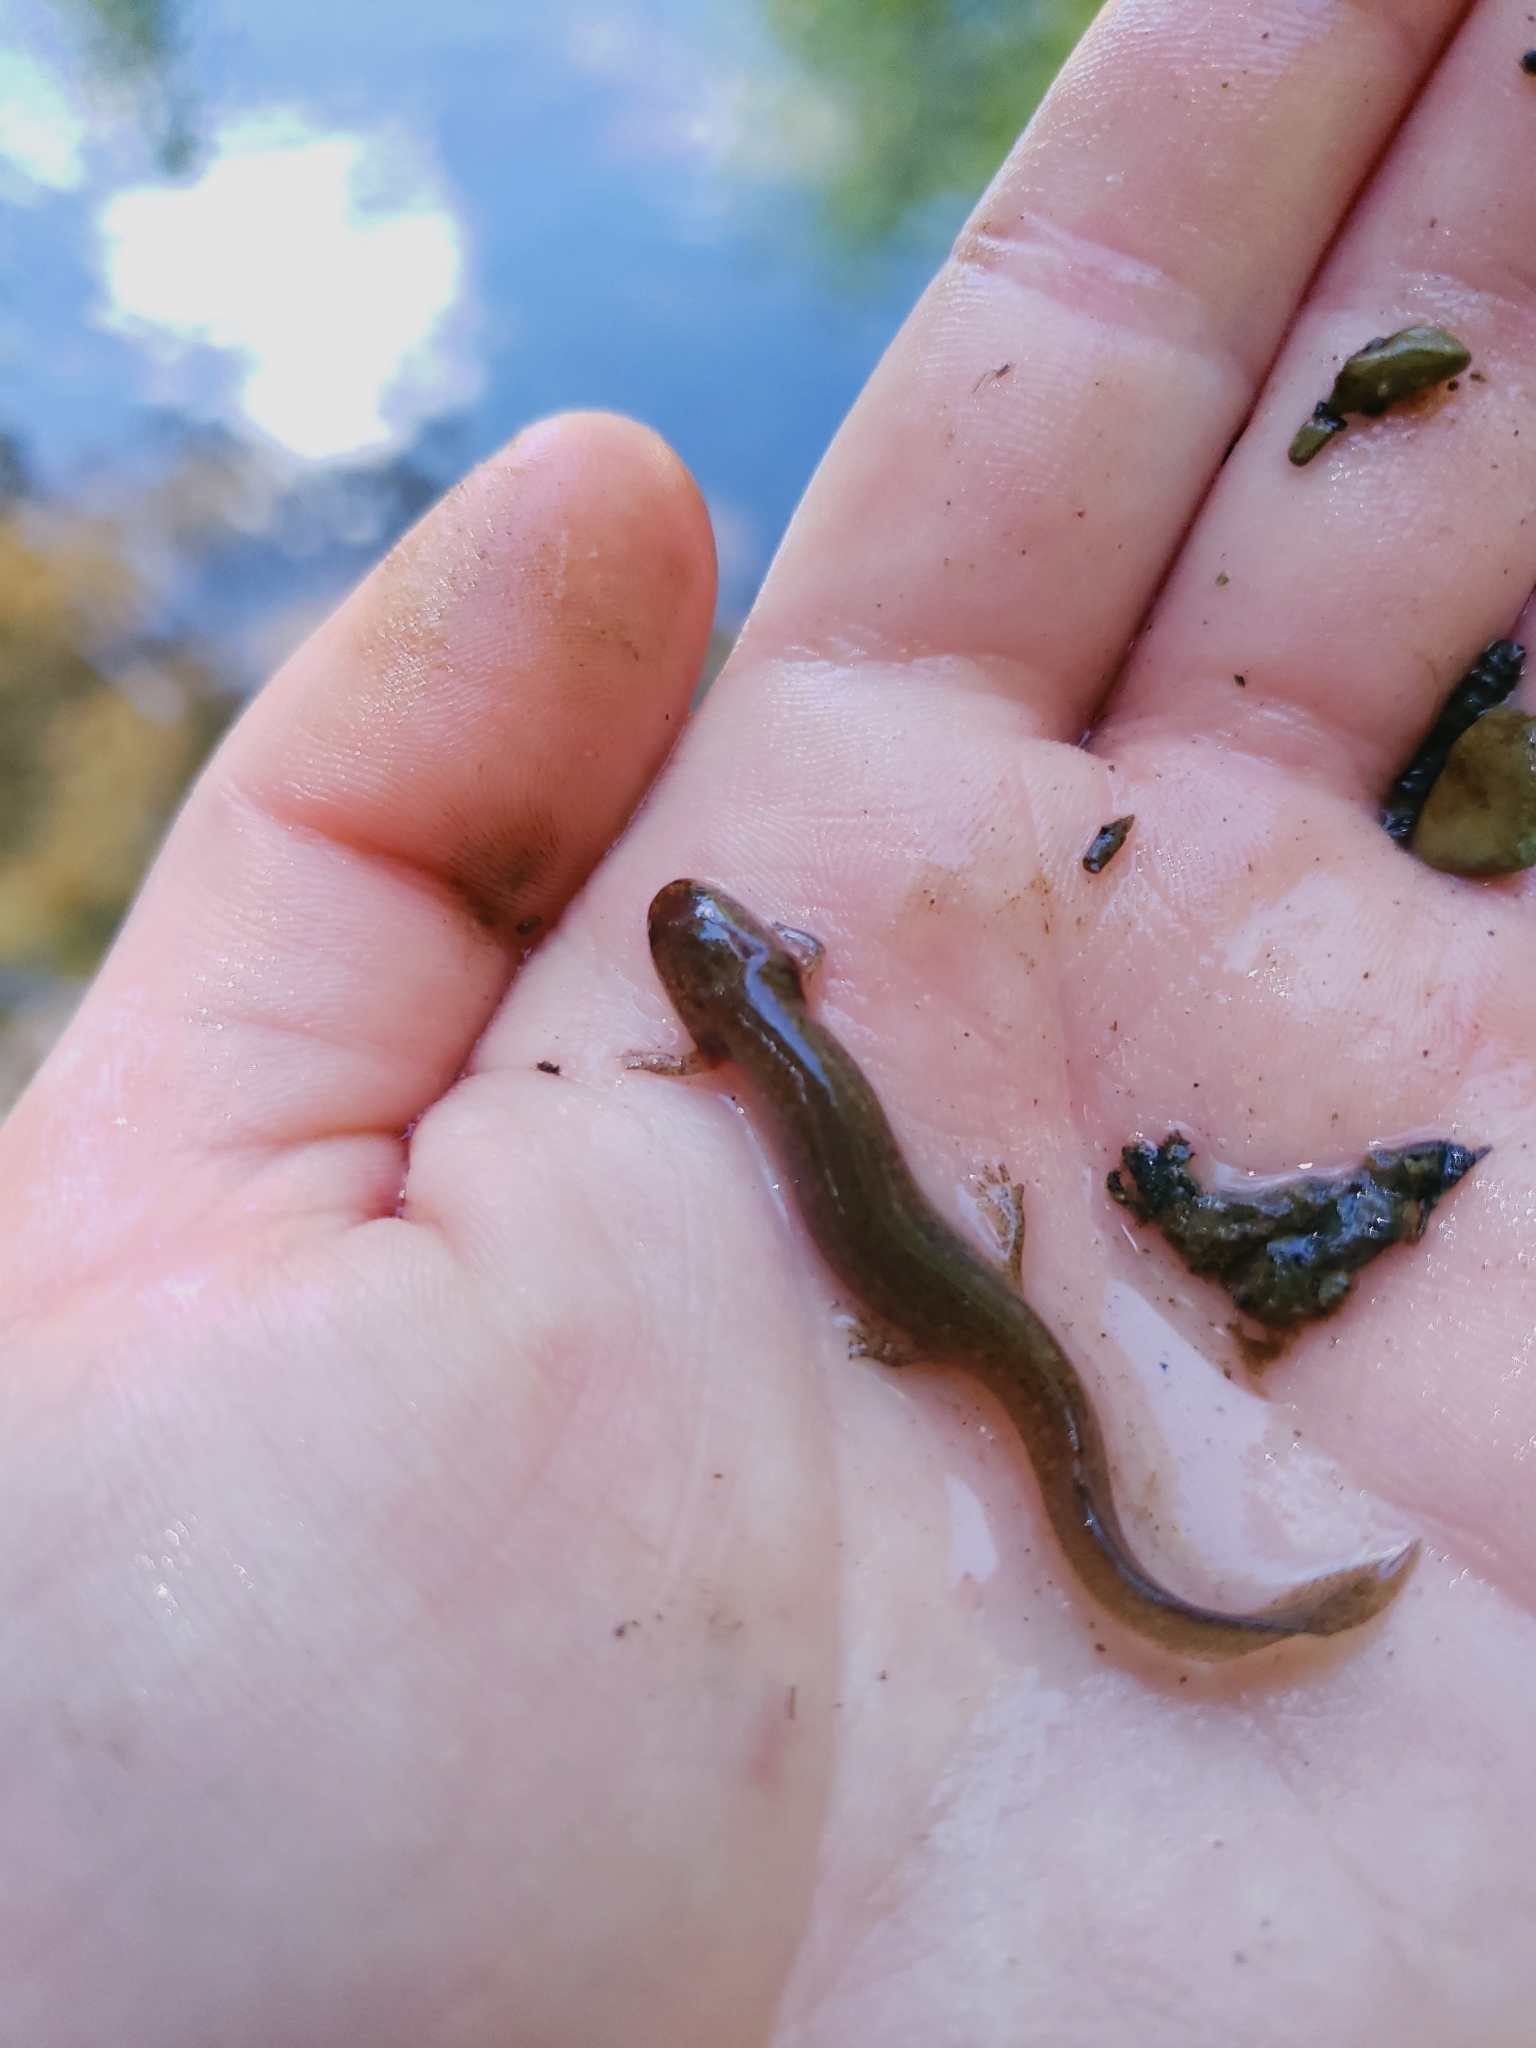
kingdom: Animalia
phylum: Chordata
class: Amphibia
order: Caudata
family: Plethodontidae
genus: Gyrinophilus
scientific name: Gyrinophilus porphyriticus
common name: Spring salamander
